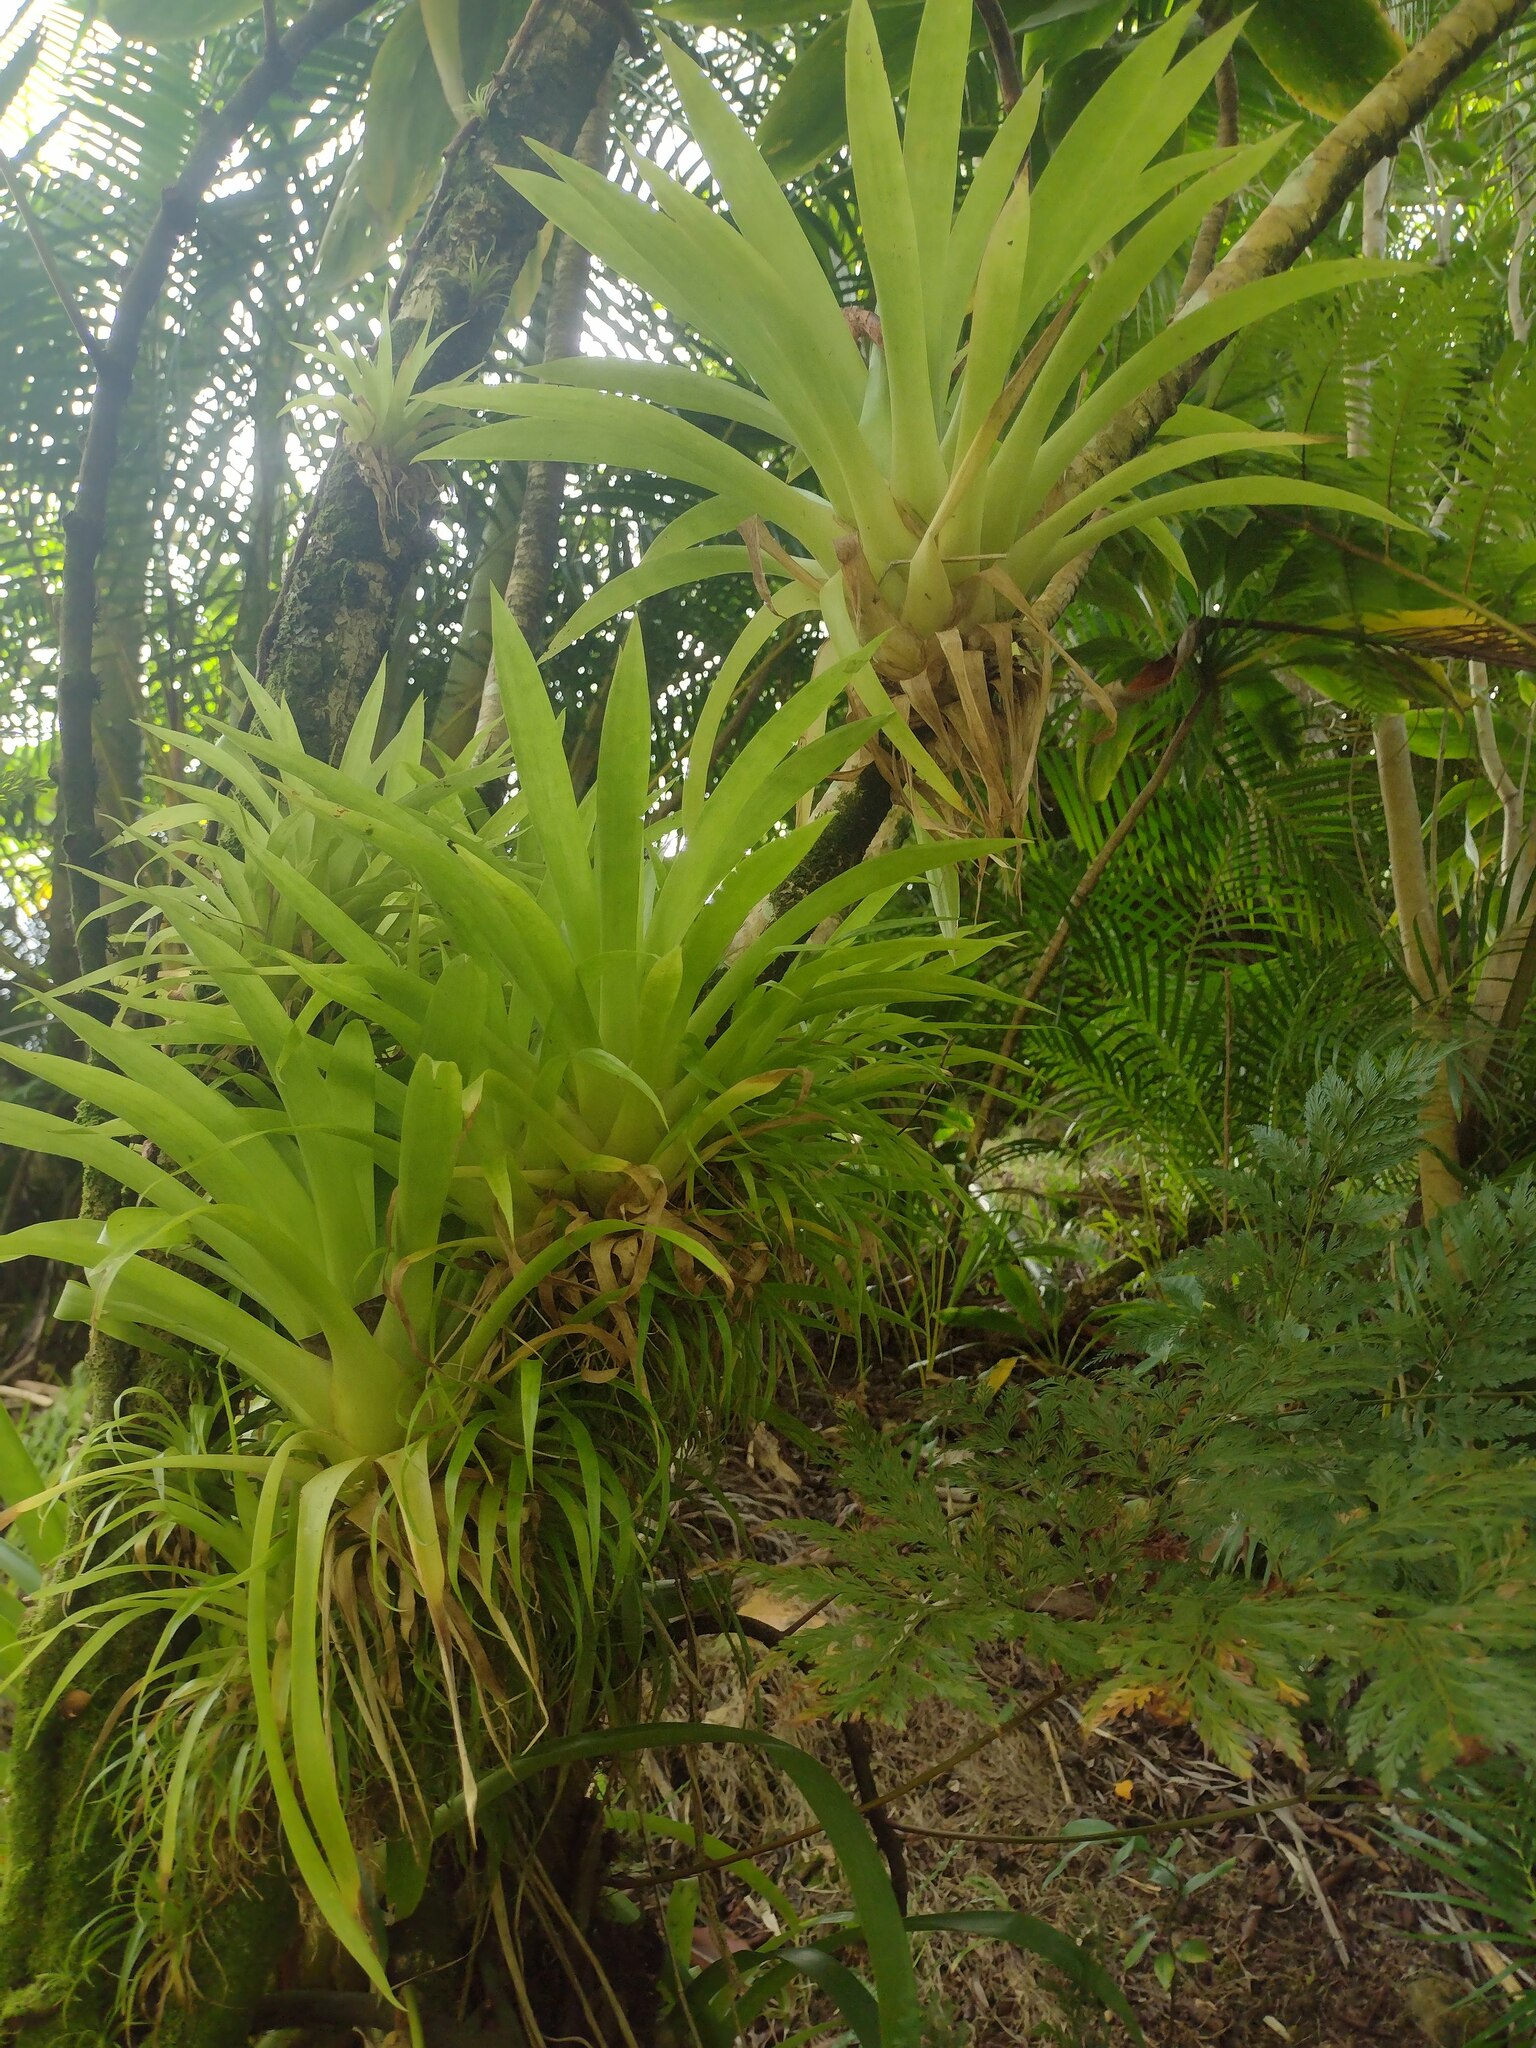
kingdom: Plantae
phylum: Tracheophyta
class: Liliopsida
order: Poales
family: Bromeliaceae
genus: Guzmania
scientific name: Guzmania monostachia
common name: West indian tufted airplant
